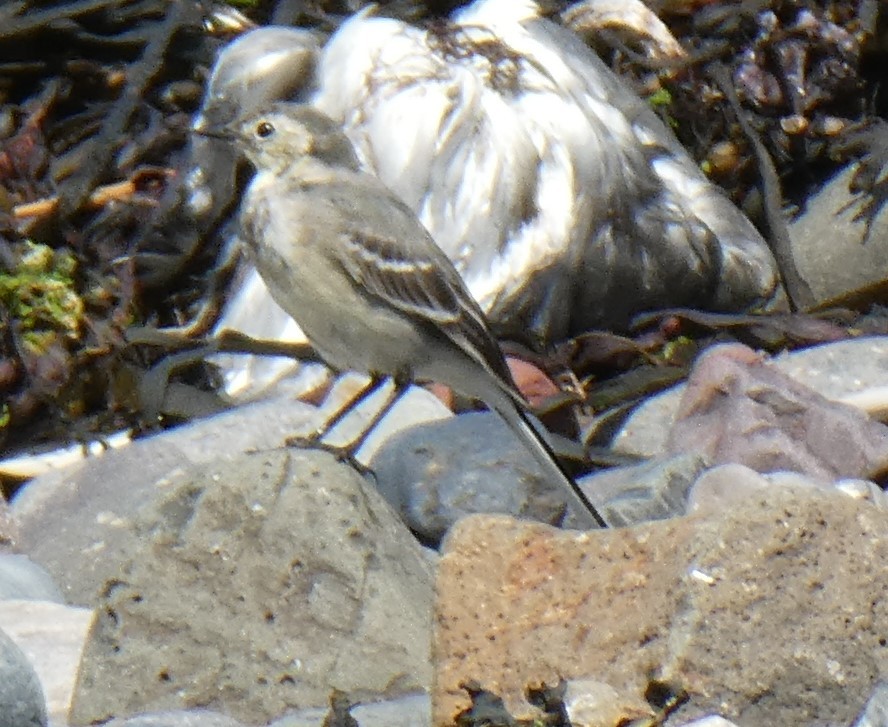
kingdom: Animalia
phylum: Chordata
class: Aves
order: Passeriformes
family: Motacillidae
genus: Motacilla
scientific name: Motacilla alba
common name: White wagtail
